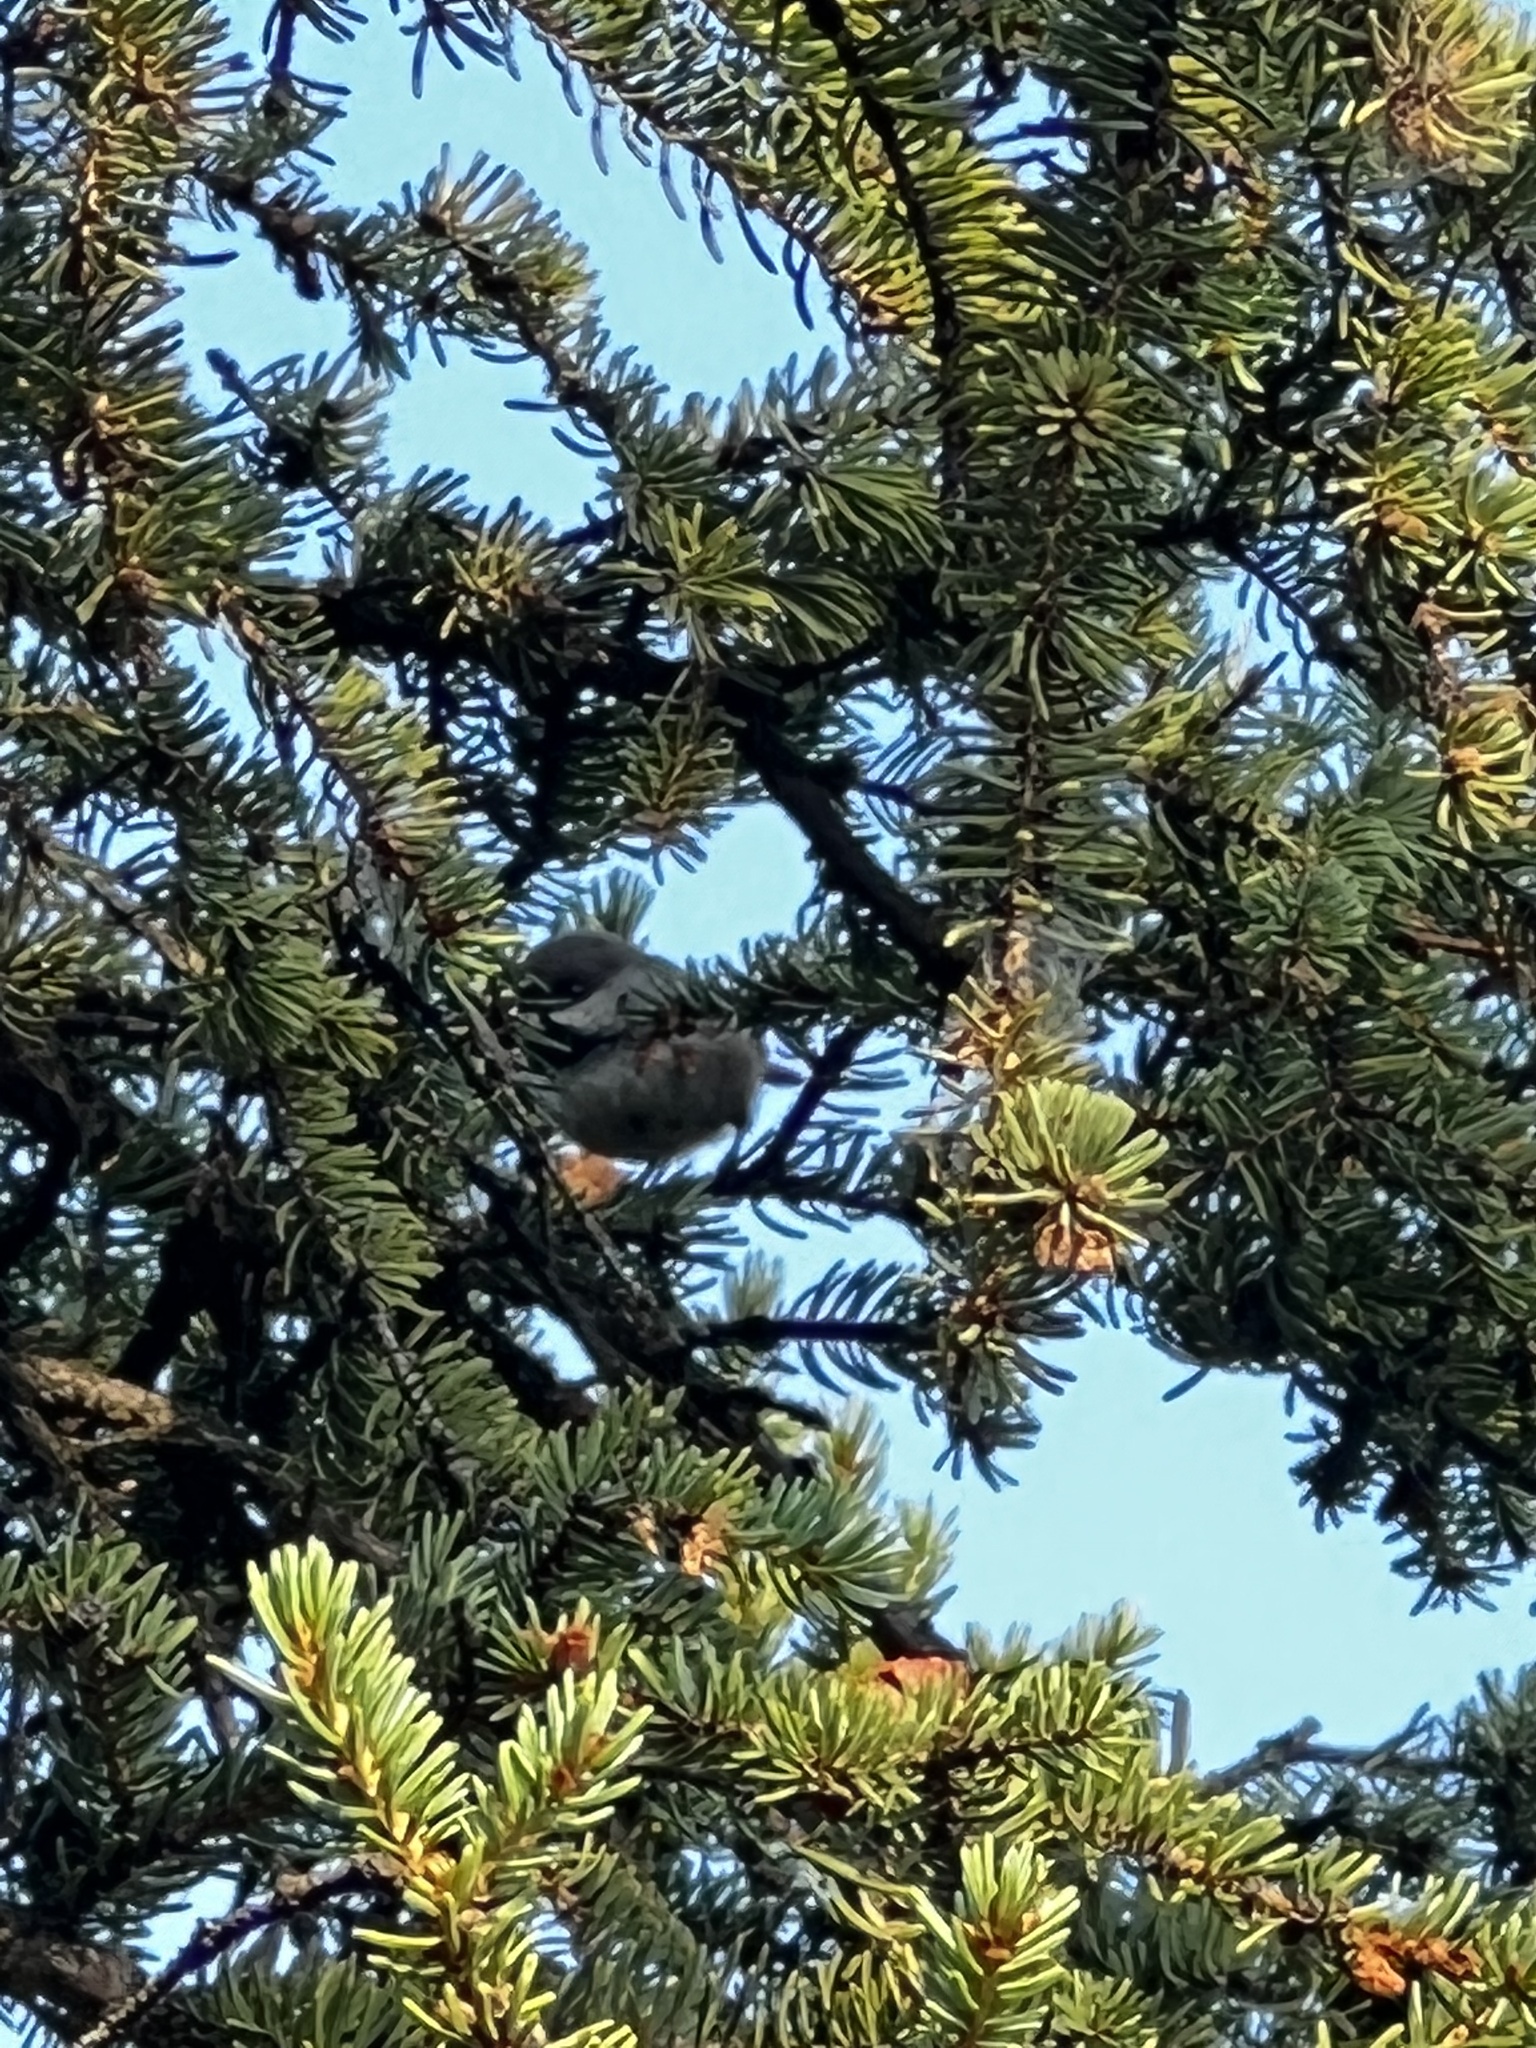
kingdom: Animalia
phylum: Chordata
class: Aves
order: Passeriformes
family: Paridae
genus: Poecile
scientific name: Poecile hudsonicus
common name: Boreal chickadee
